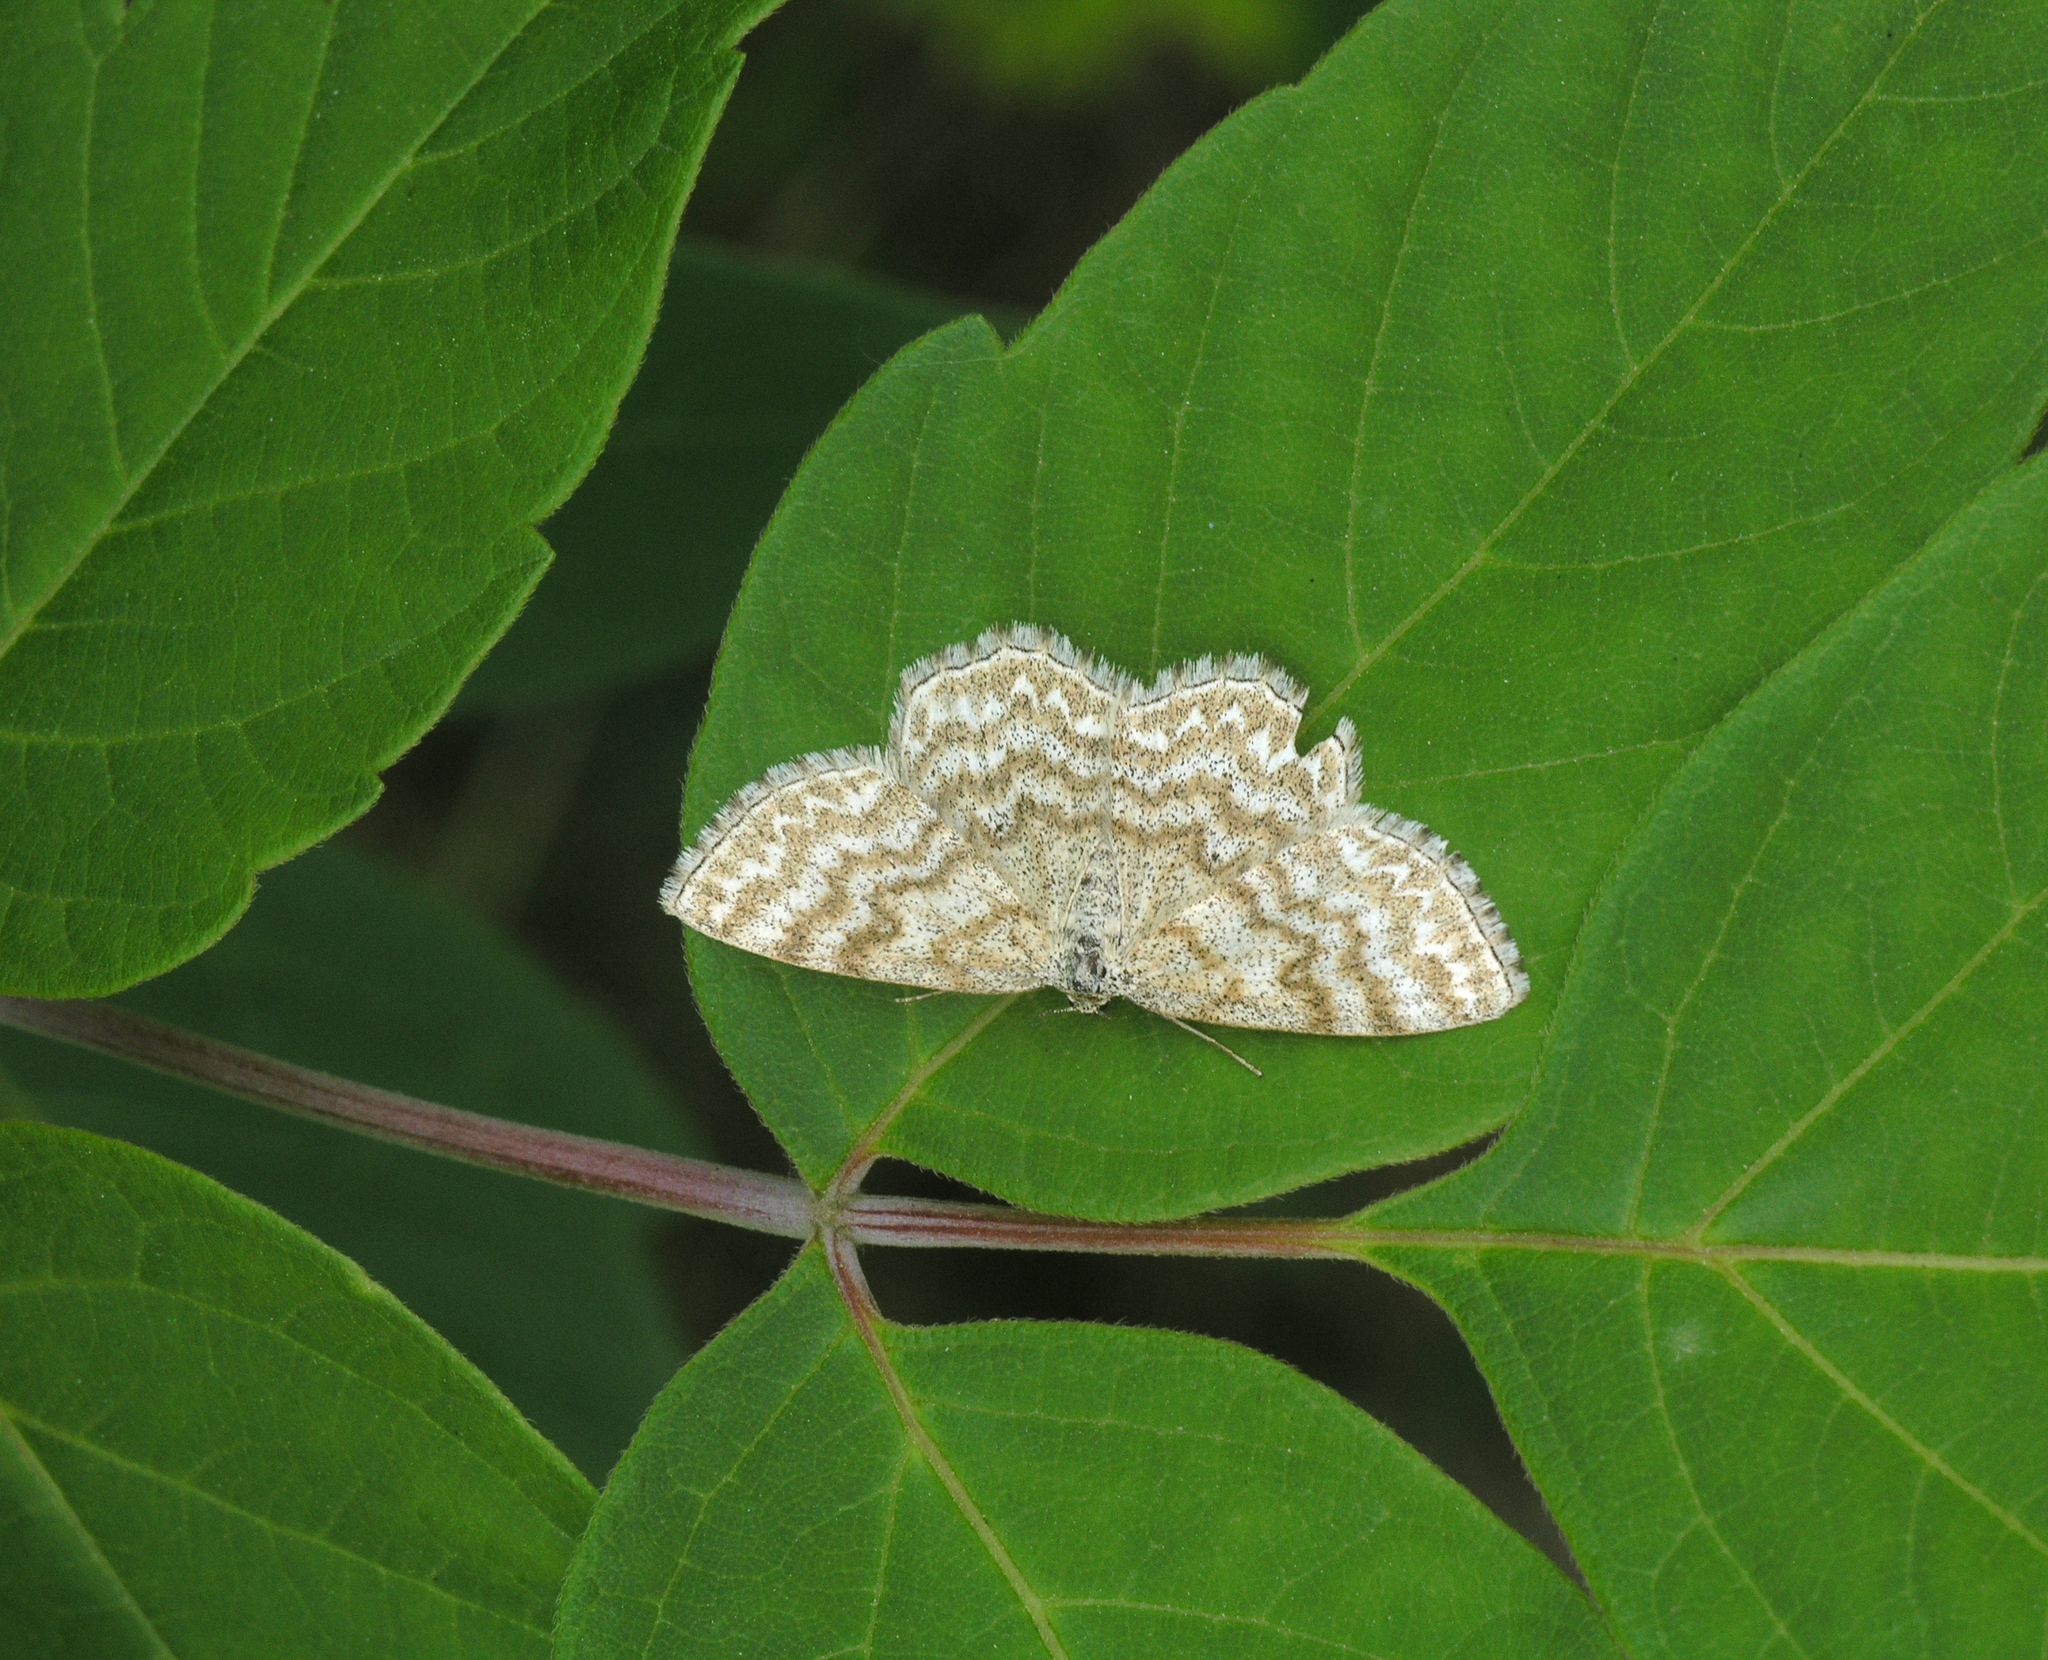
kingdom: Animalia
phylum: Arthropoda
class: Insecta
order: Lepidoptera
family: Geometridae
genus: Scopula
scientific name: Scopula immorata
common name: Lewes wave
